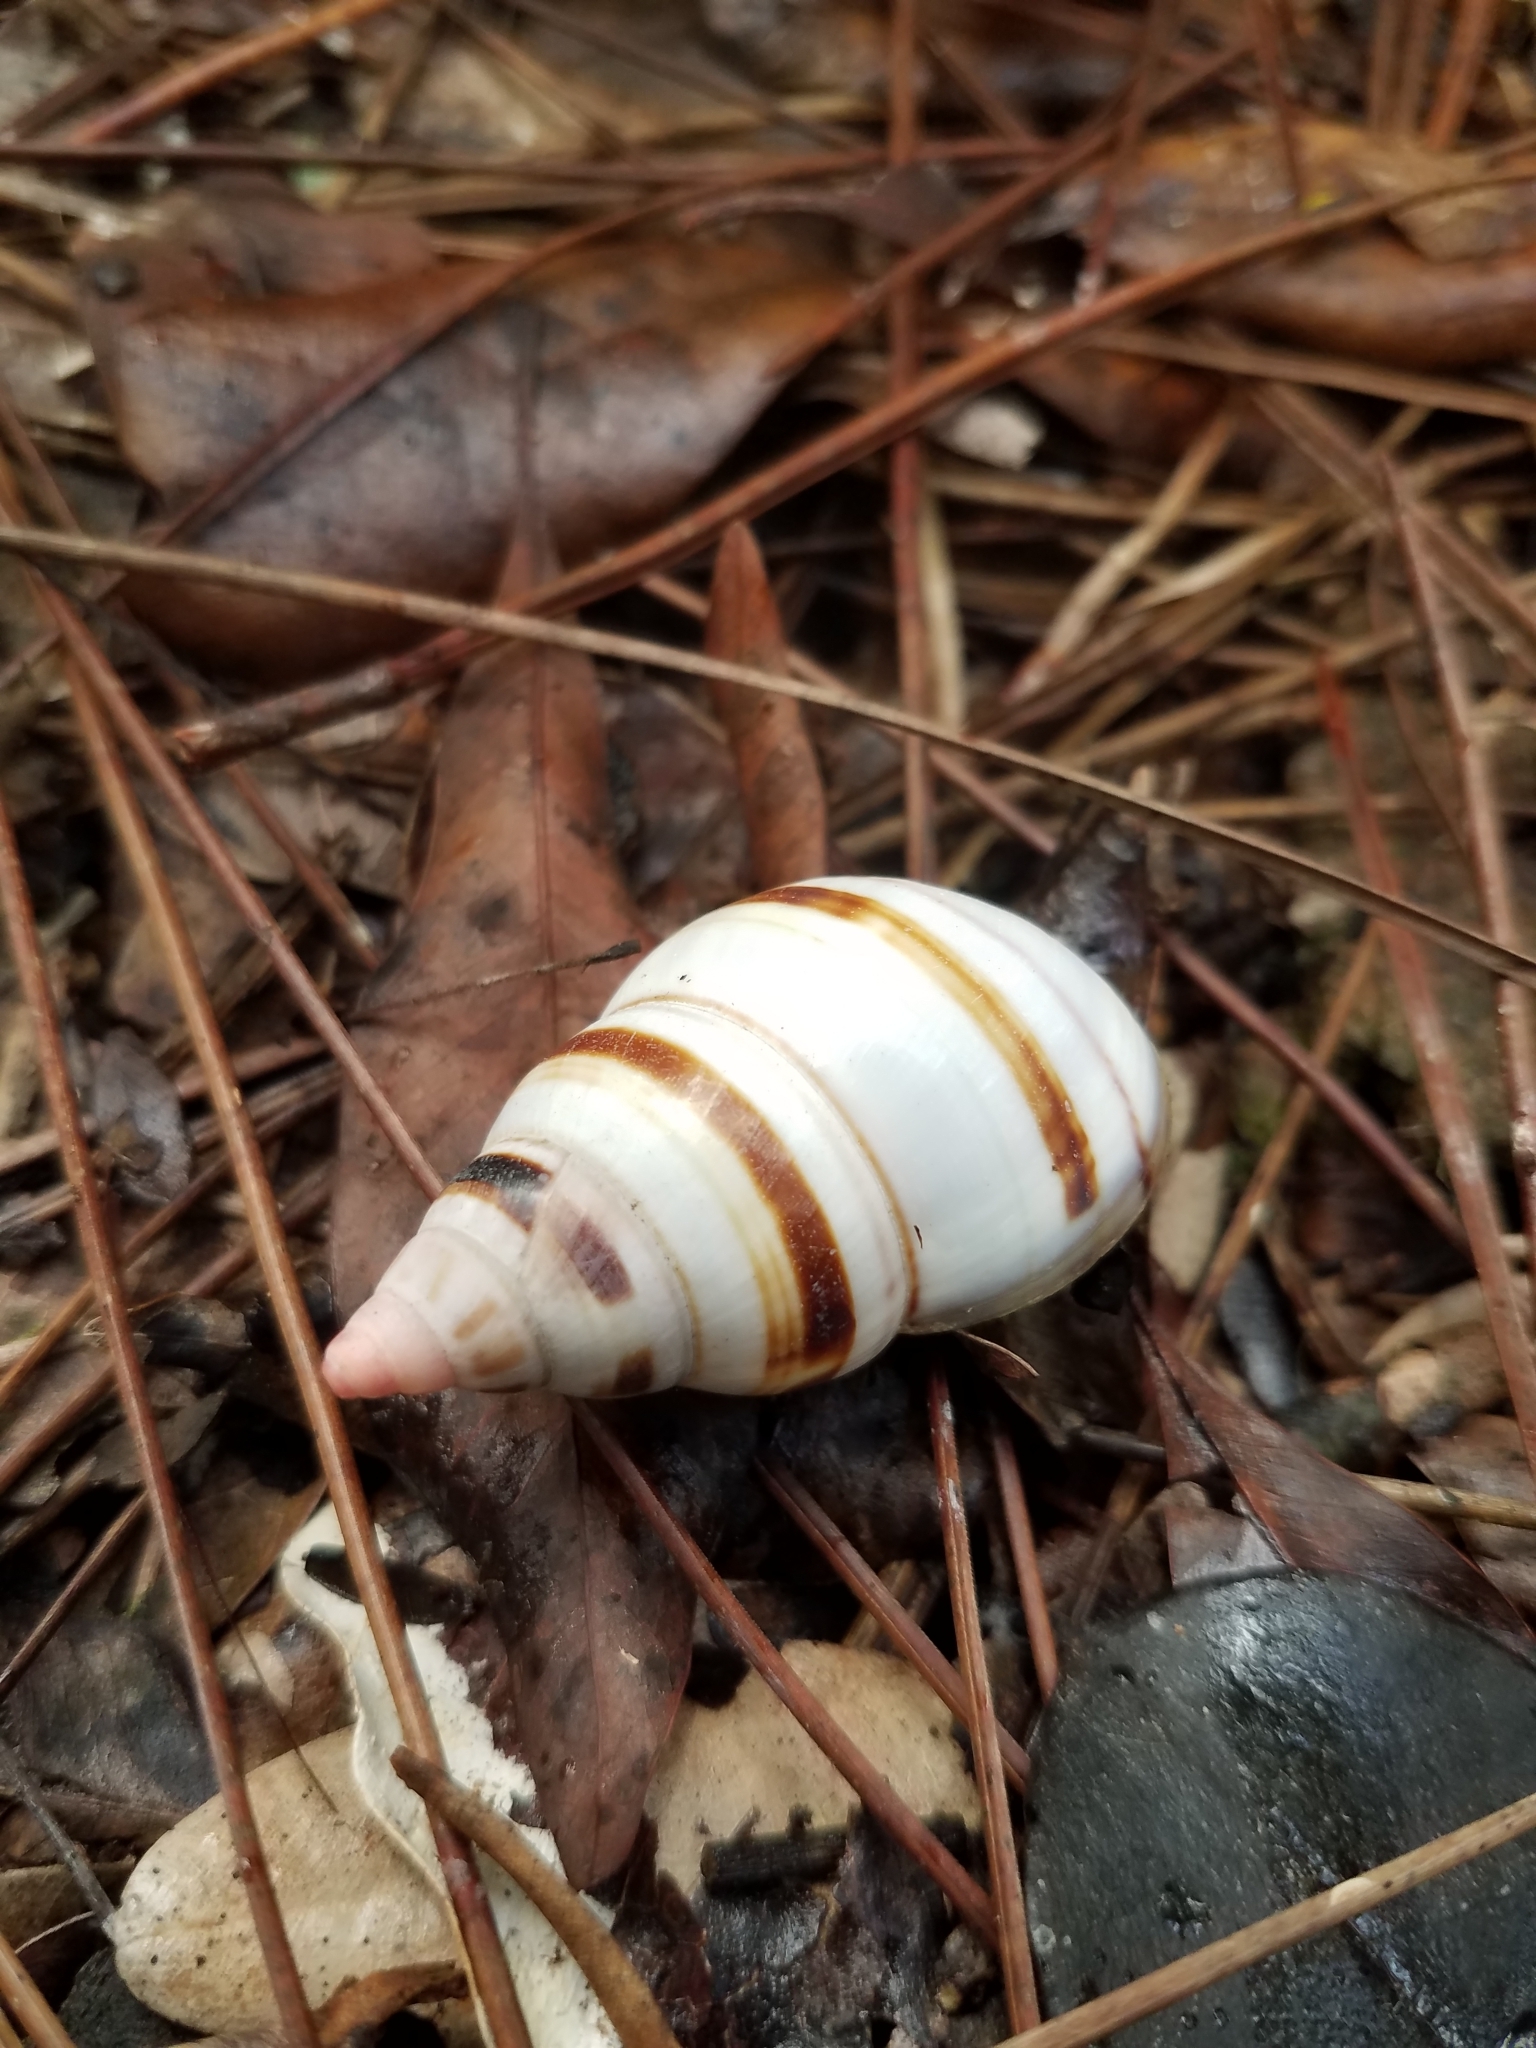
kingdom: Animalia
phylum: Mollusca
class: Gastropoda
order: Stylommatophora
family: Orthalicidae
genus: Liguus
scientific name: Liguus fasciatus
